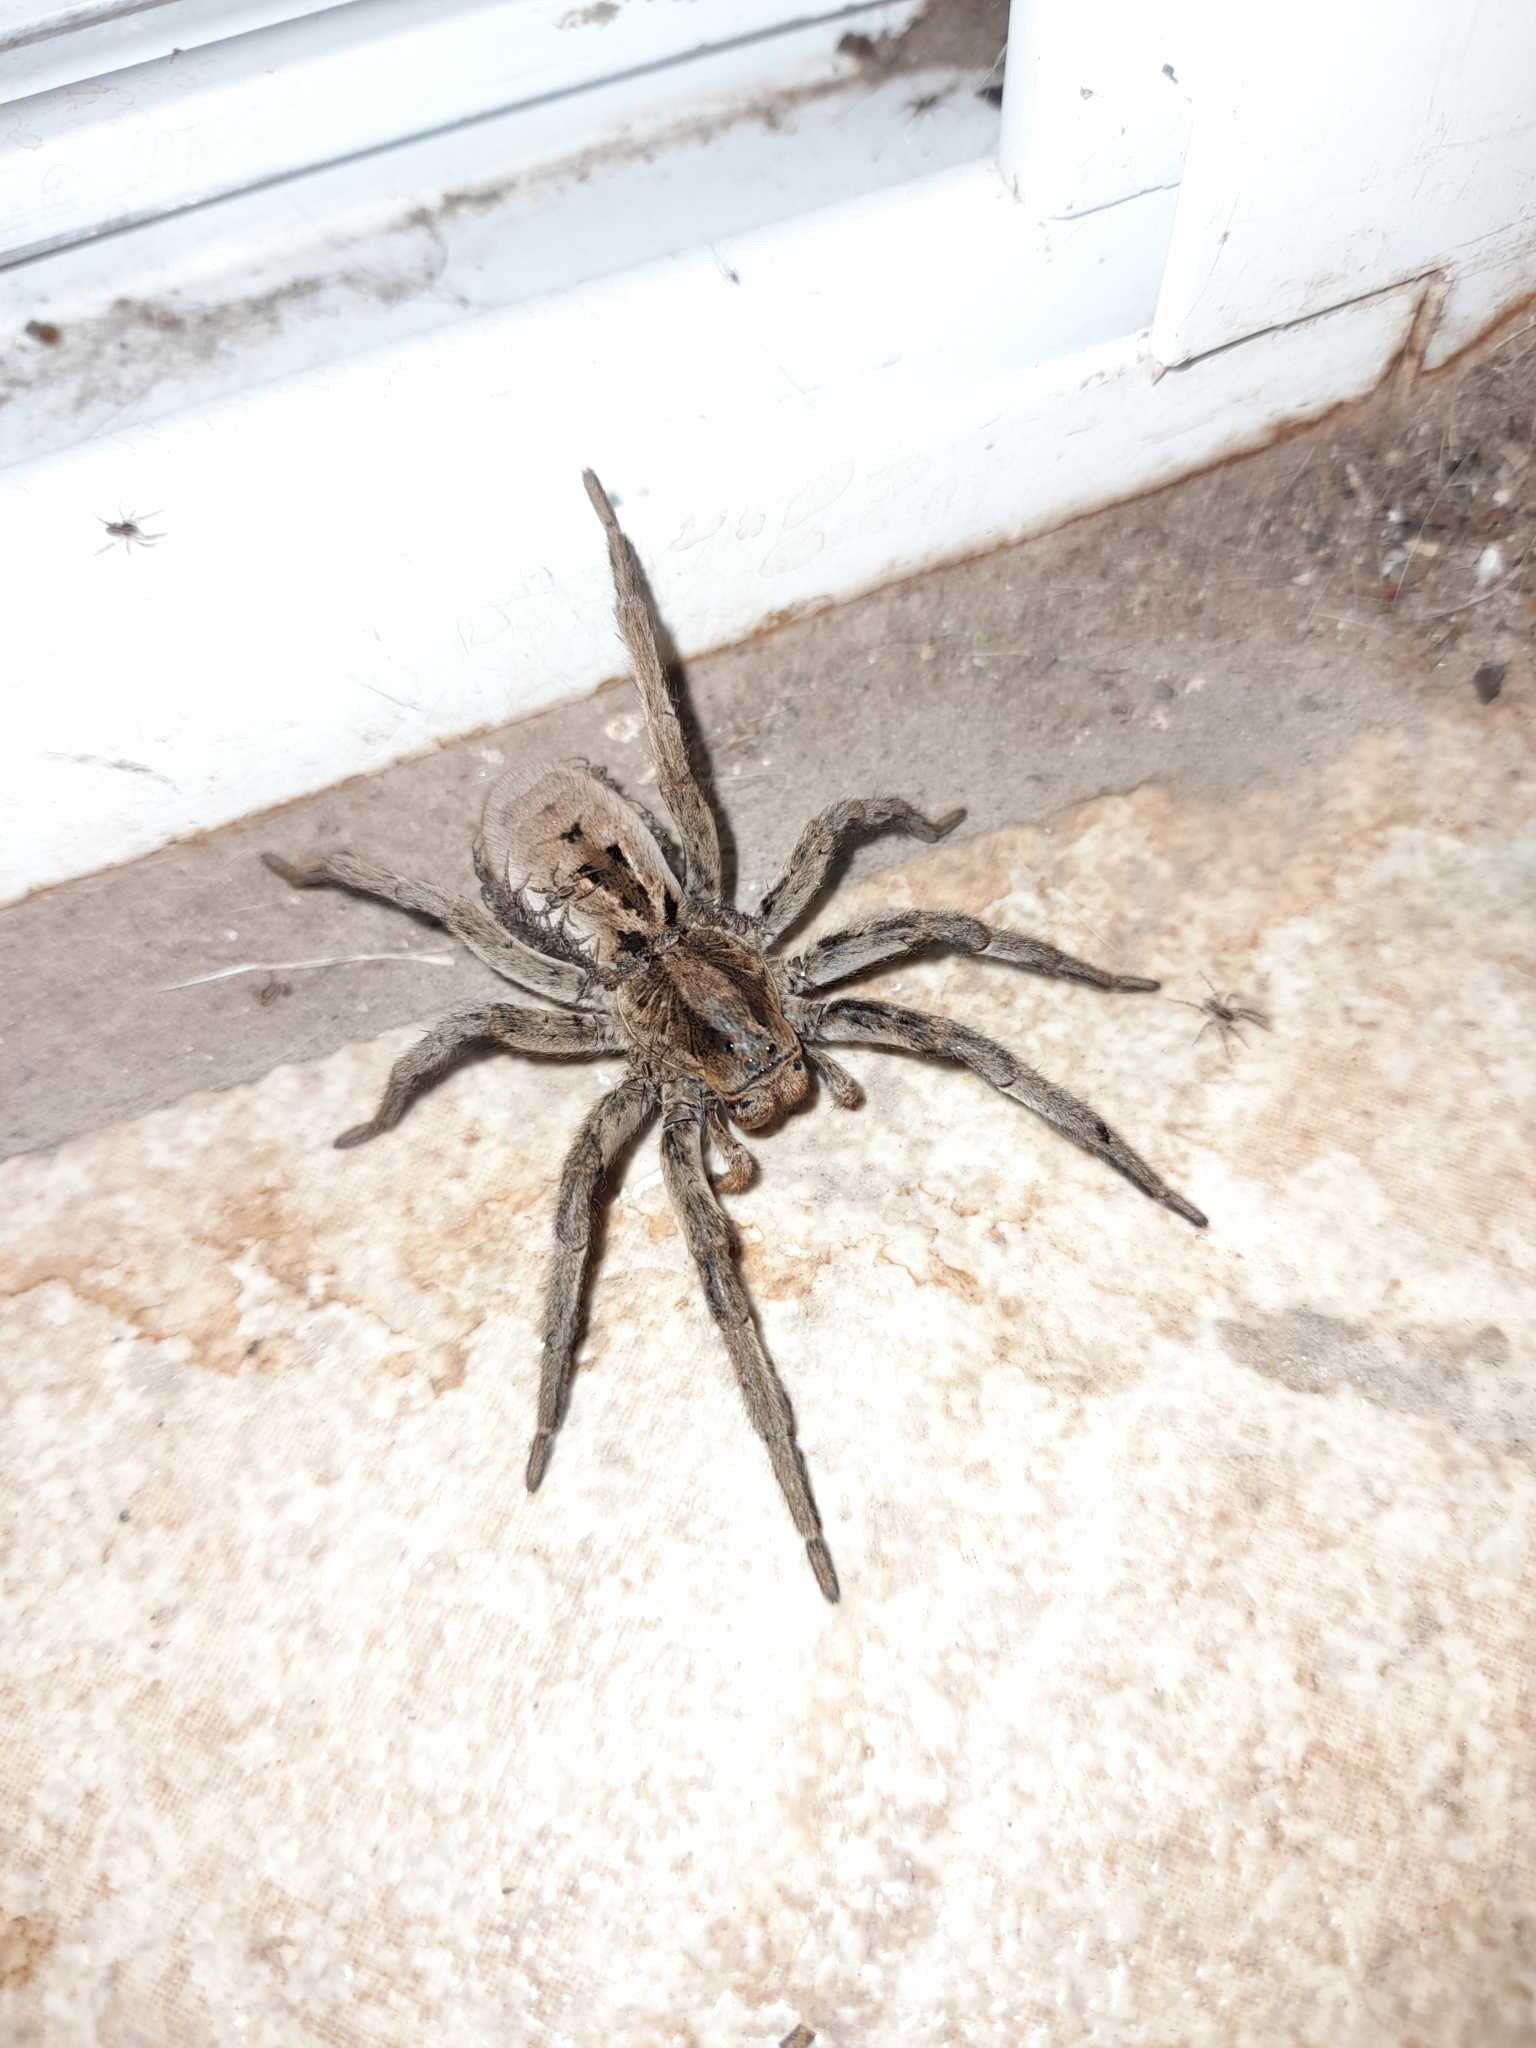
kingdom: Animalia
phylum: Arthropoda
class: Arachnida
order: Araneae
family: Lycosidae
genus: Lycosa
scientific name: Lycosa erythrognatha
